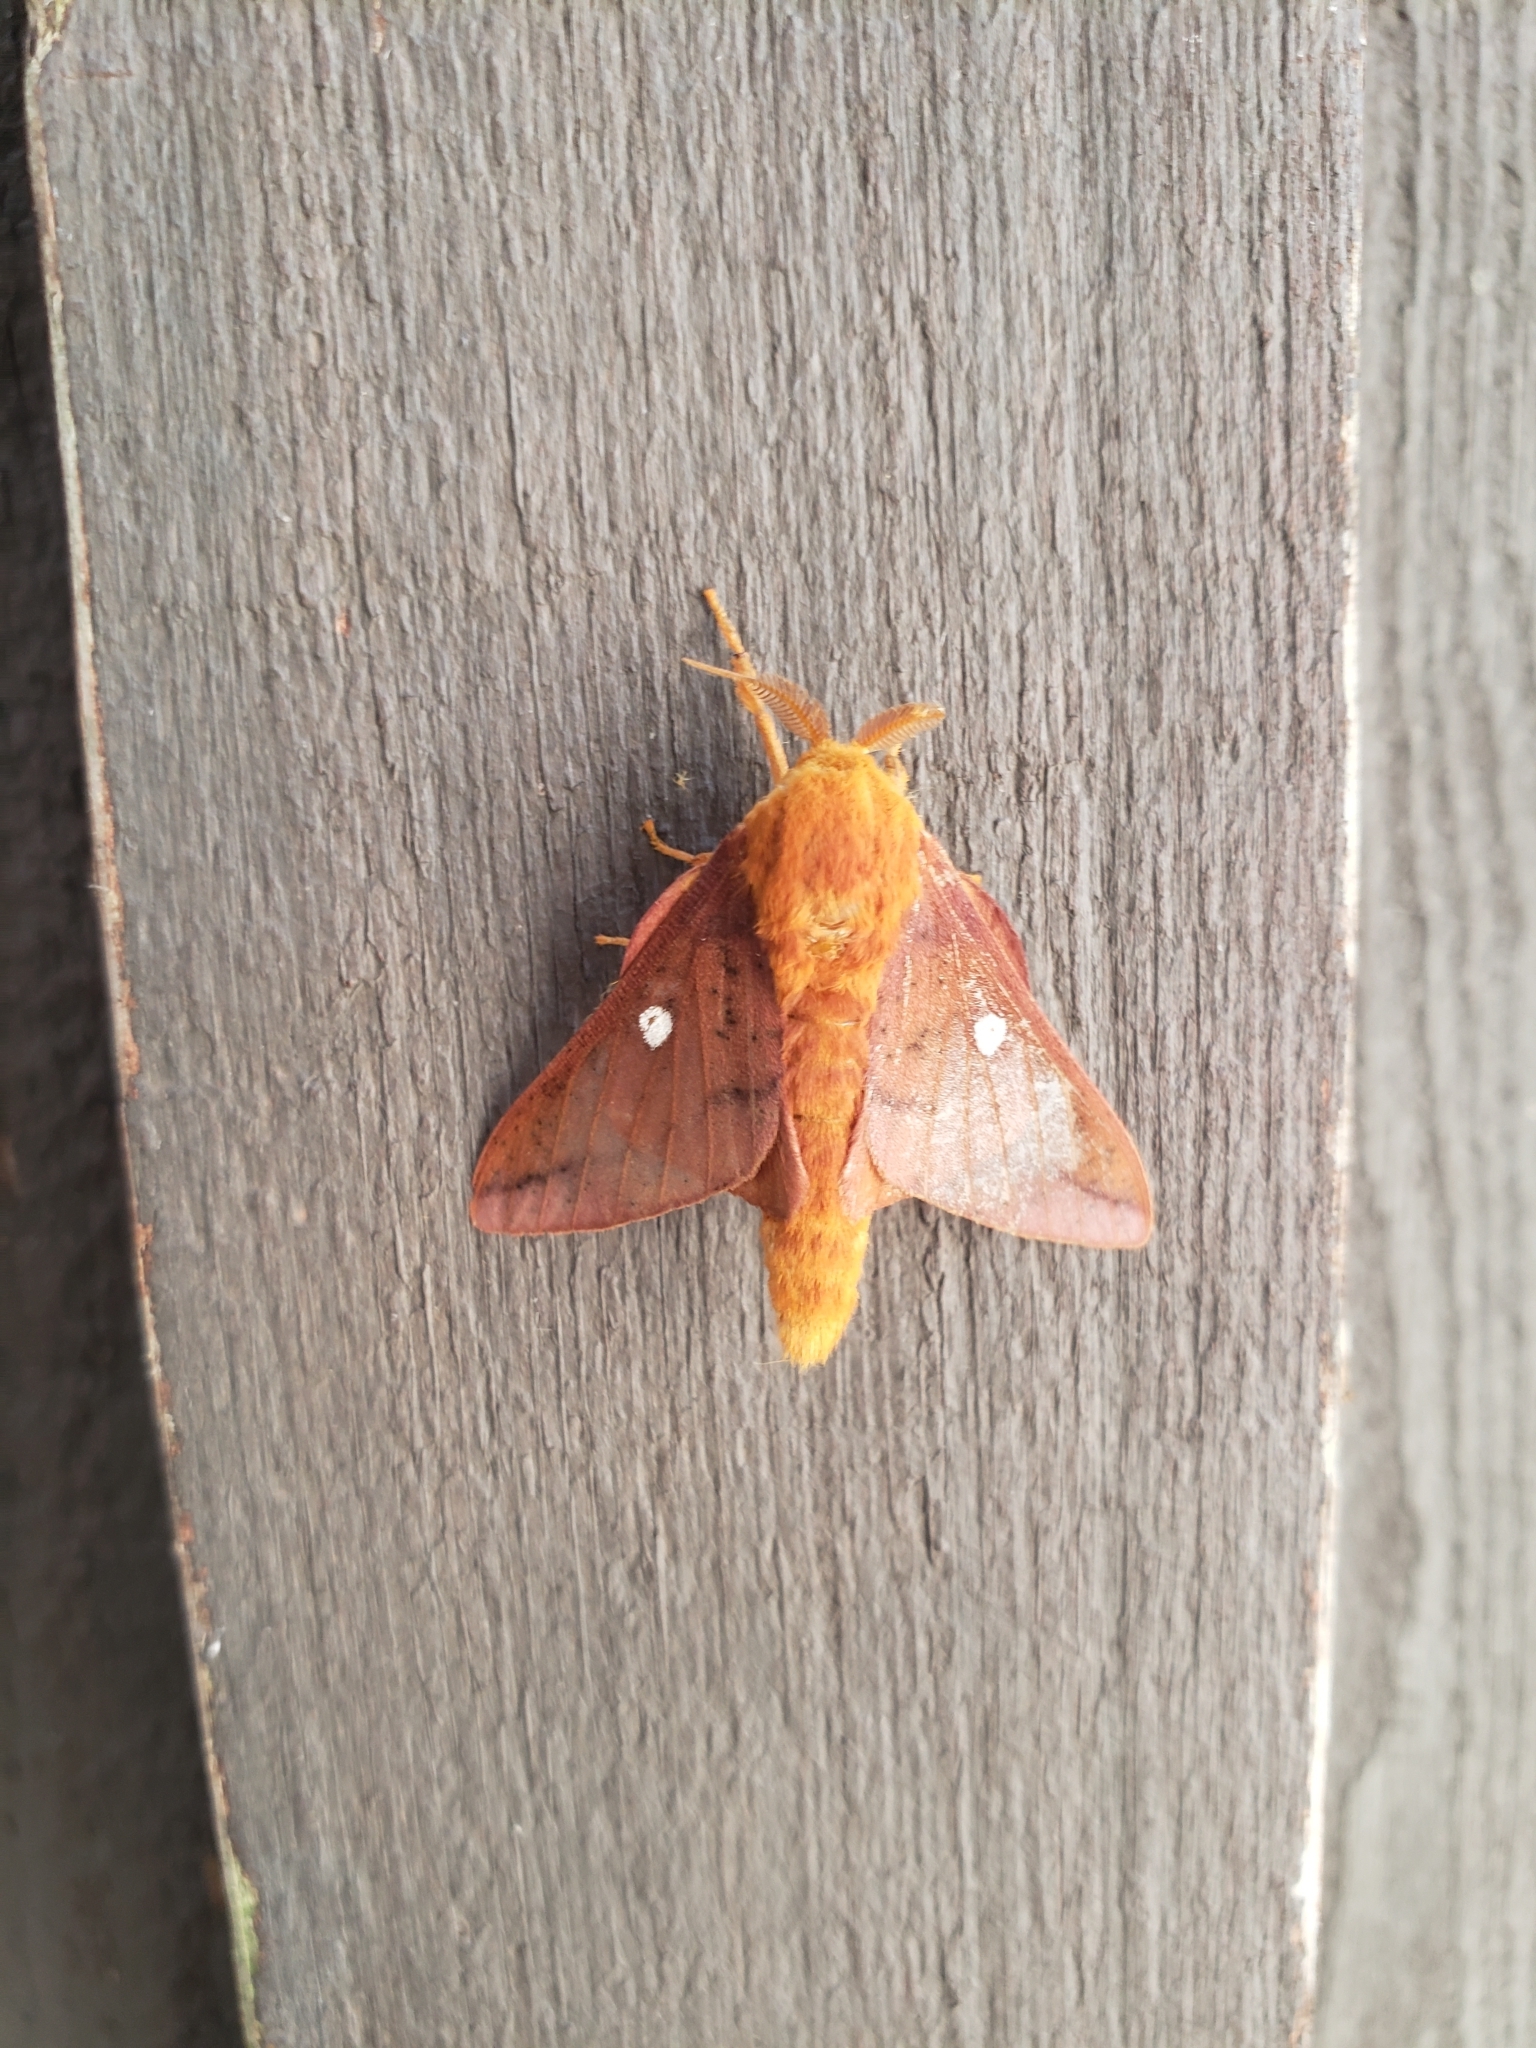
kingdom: Animalia
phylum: Arthropoda
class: Insecta
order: Lepidoptera
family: Saturniidae
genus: Anisota
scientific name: Anisota senatoria
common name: Orange-striped oakworm moth
